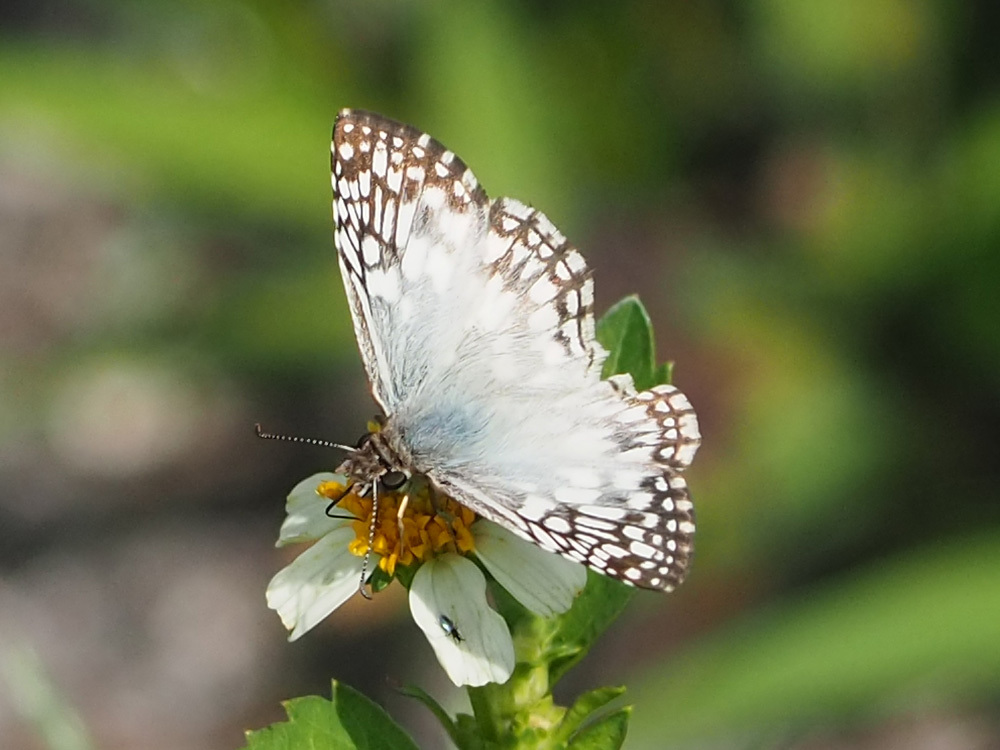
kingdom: Animalia
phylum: Arthropoda
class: Insecta
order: Lepidoptera
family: Hesperiidae
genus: Pyrgus
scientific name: Pyrgus oileus
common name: Tropical checkered-skipper
